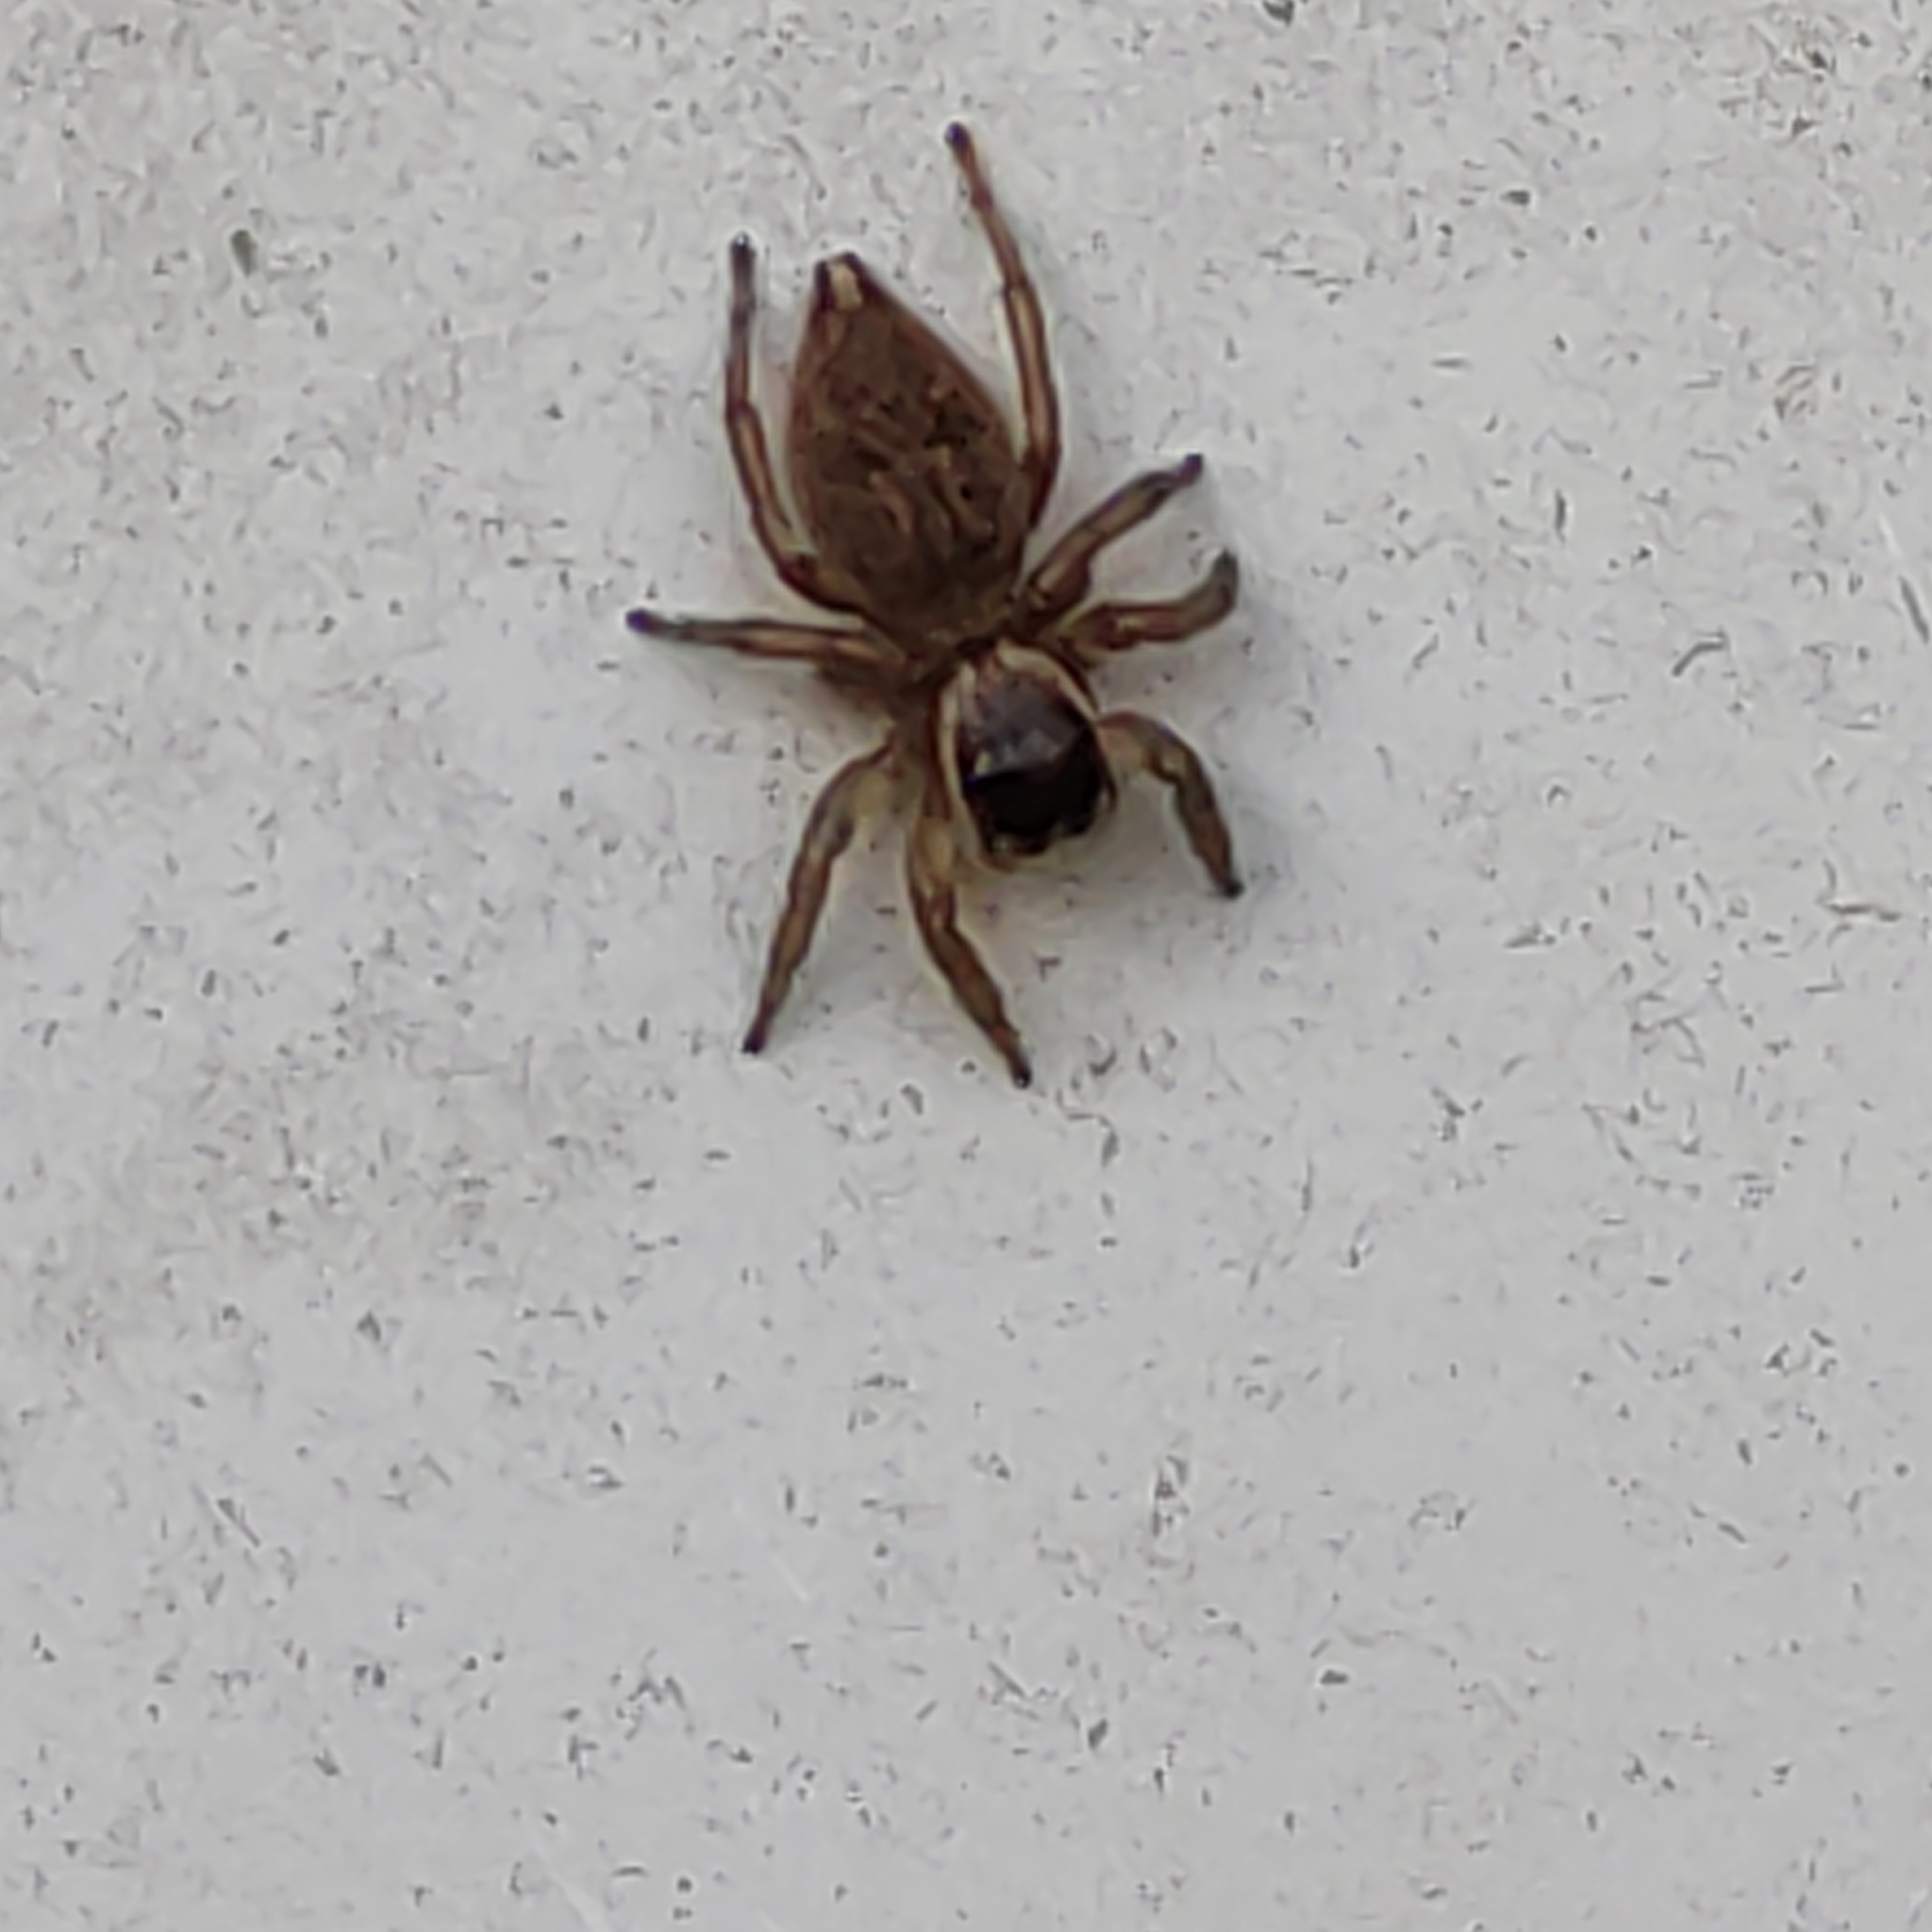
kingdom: Animalia
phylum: Arthropoda
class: Arachnida
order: Araneae
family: Salticidae
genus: Maratus
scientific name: Maratus griseus
